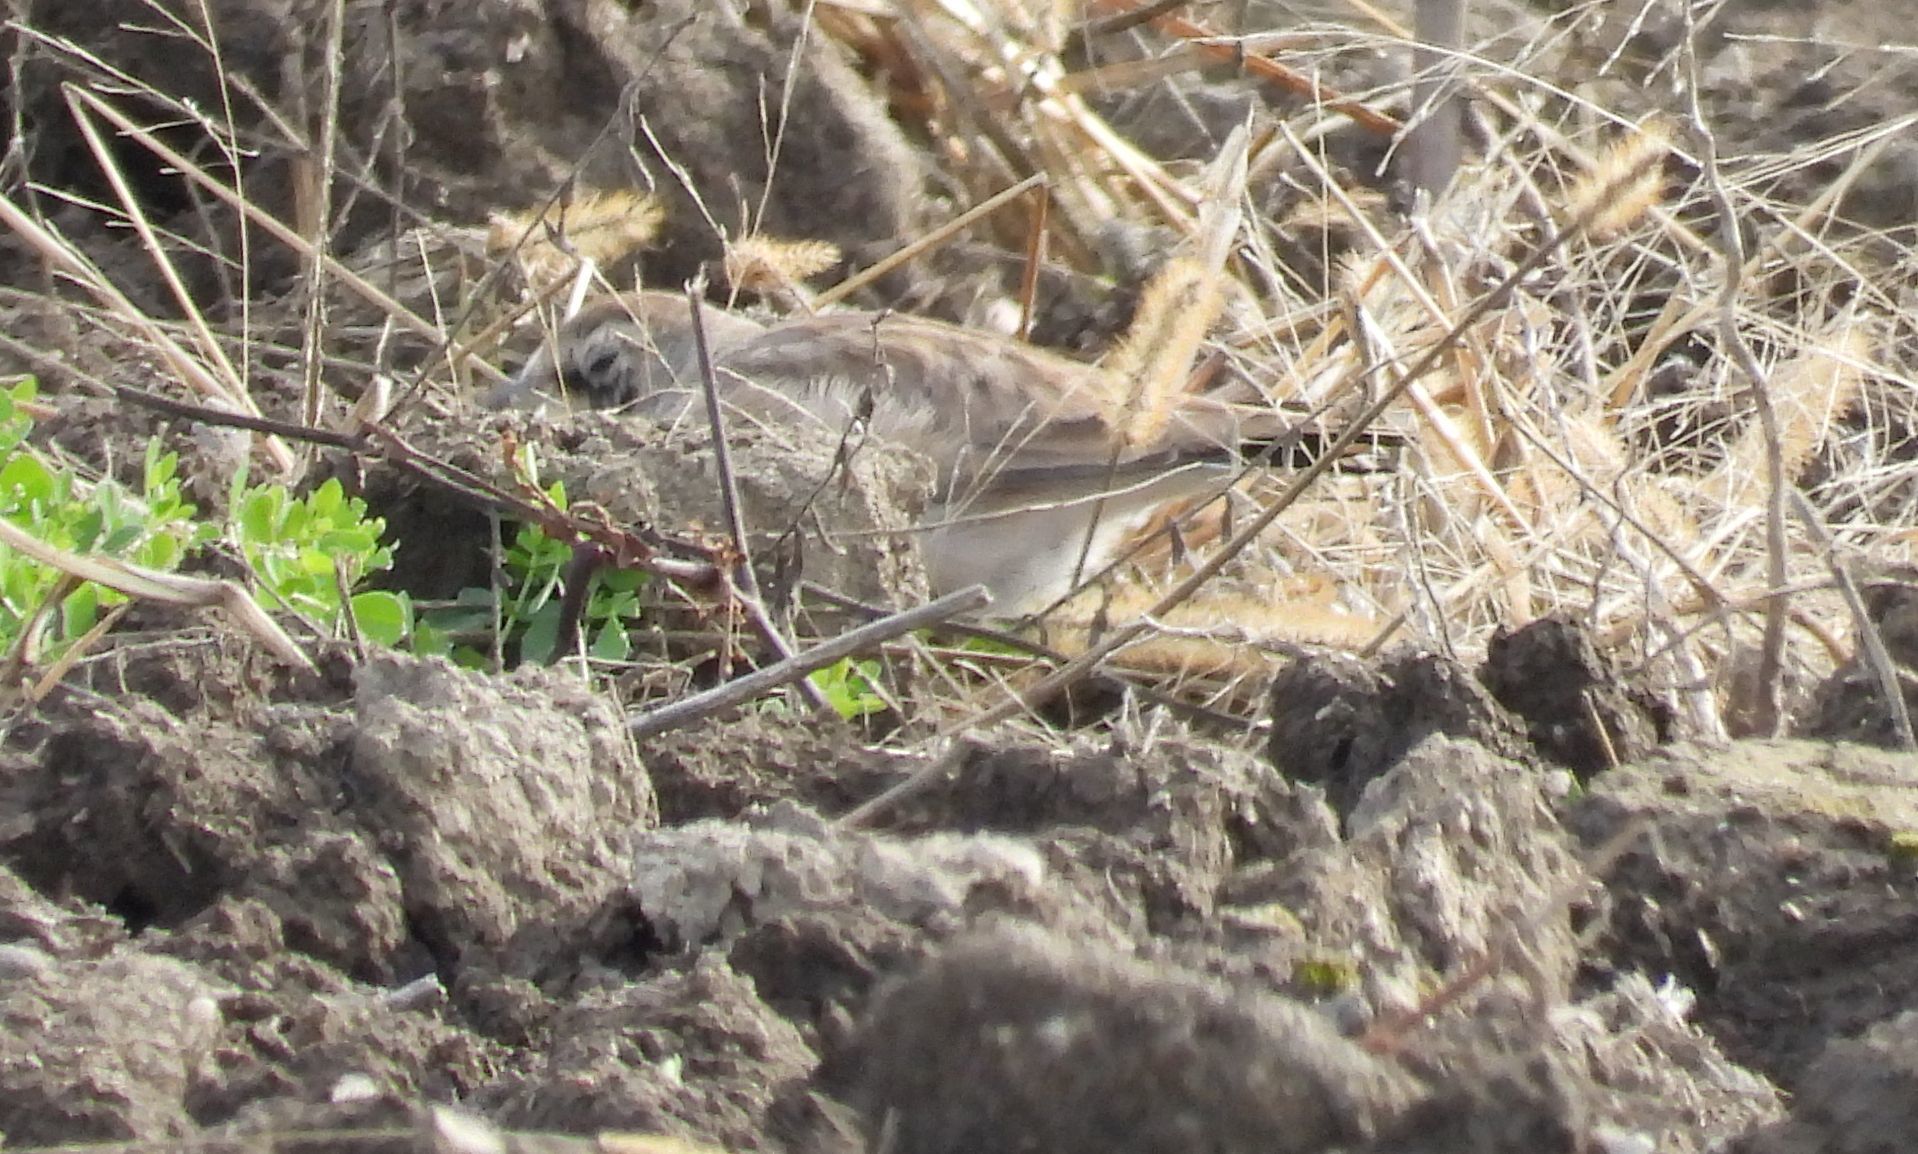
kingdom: Animalia
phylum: Chordata
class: Aves
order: Passeriformes
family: Alaudidae
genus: Eremophila
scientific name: Eremophila alpestris
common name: Horned lark
